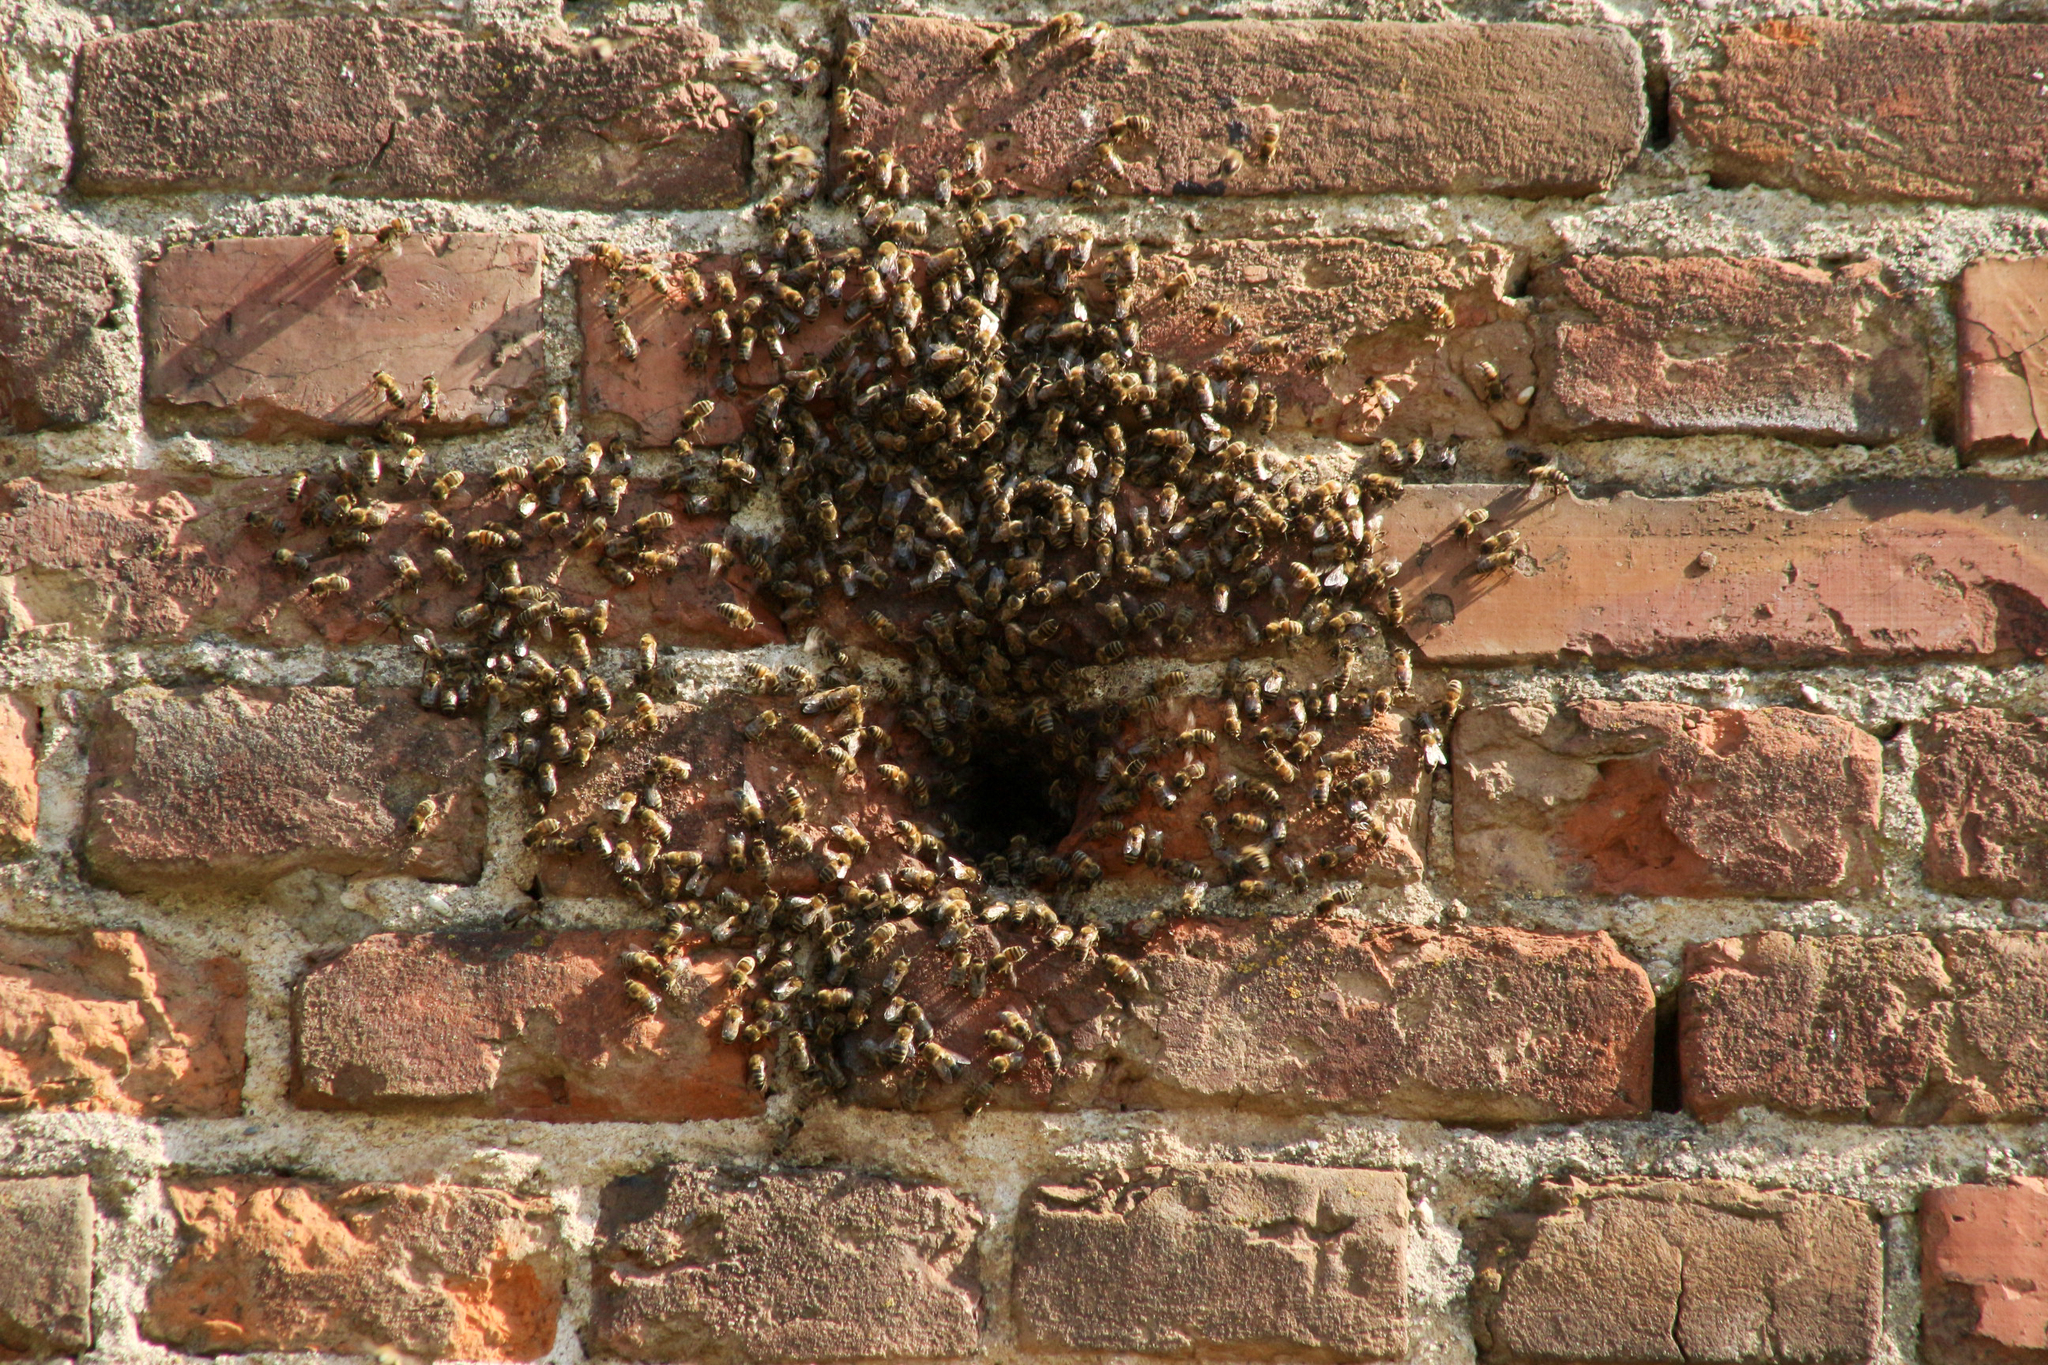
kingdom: Animalia
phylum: Arthropoda
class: Insecta
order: Hymenoptera
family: Apidae
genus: Apis
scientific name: Apis mellifera
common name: Honey bee
